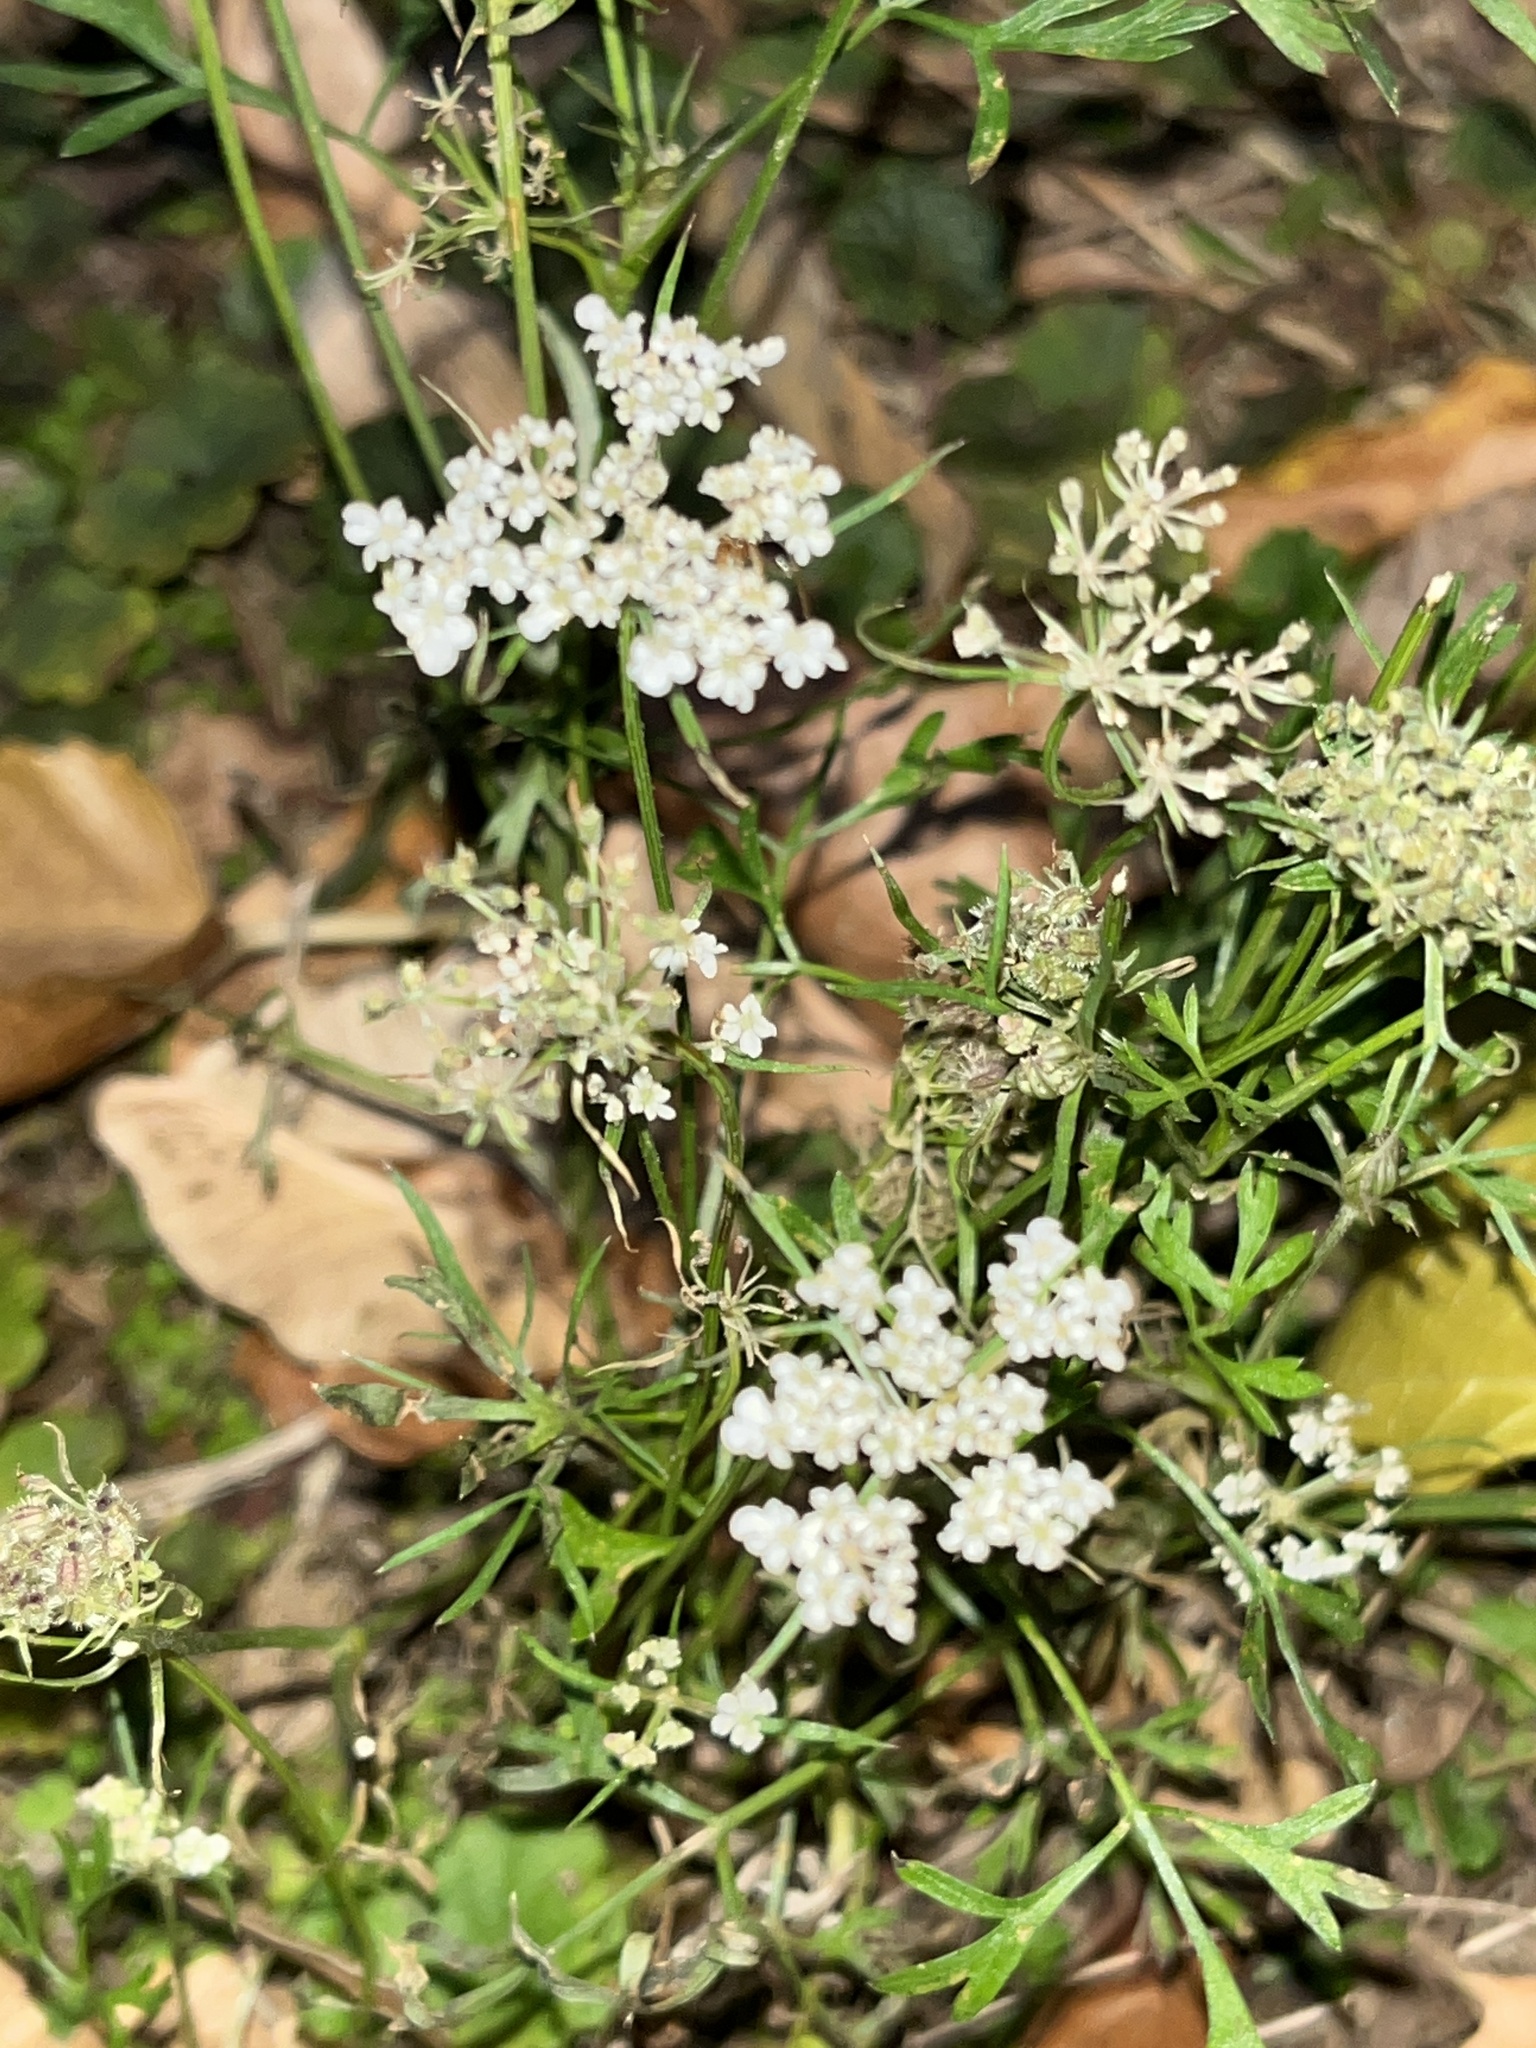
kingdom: Plantae
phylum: Tracheophyta
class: Magnoliopsida
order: Apiales
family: Apiaceae
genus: Daucus
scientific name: Daucus carota
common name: Wild carrot
